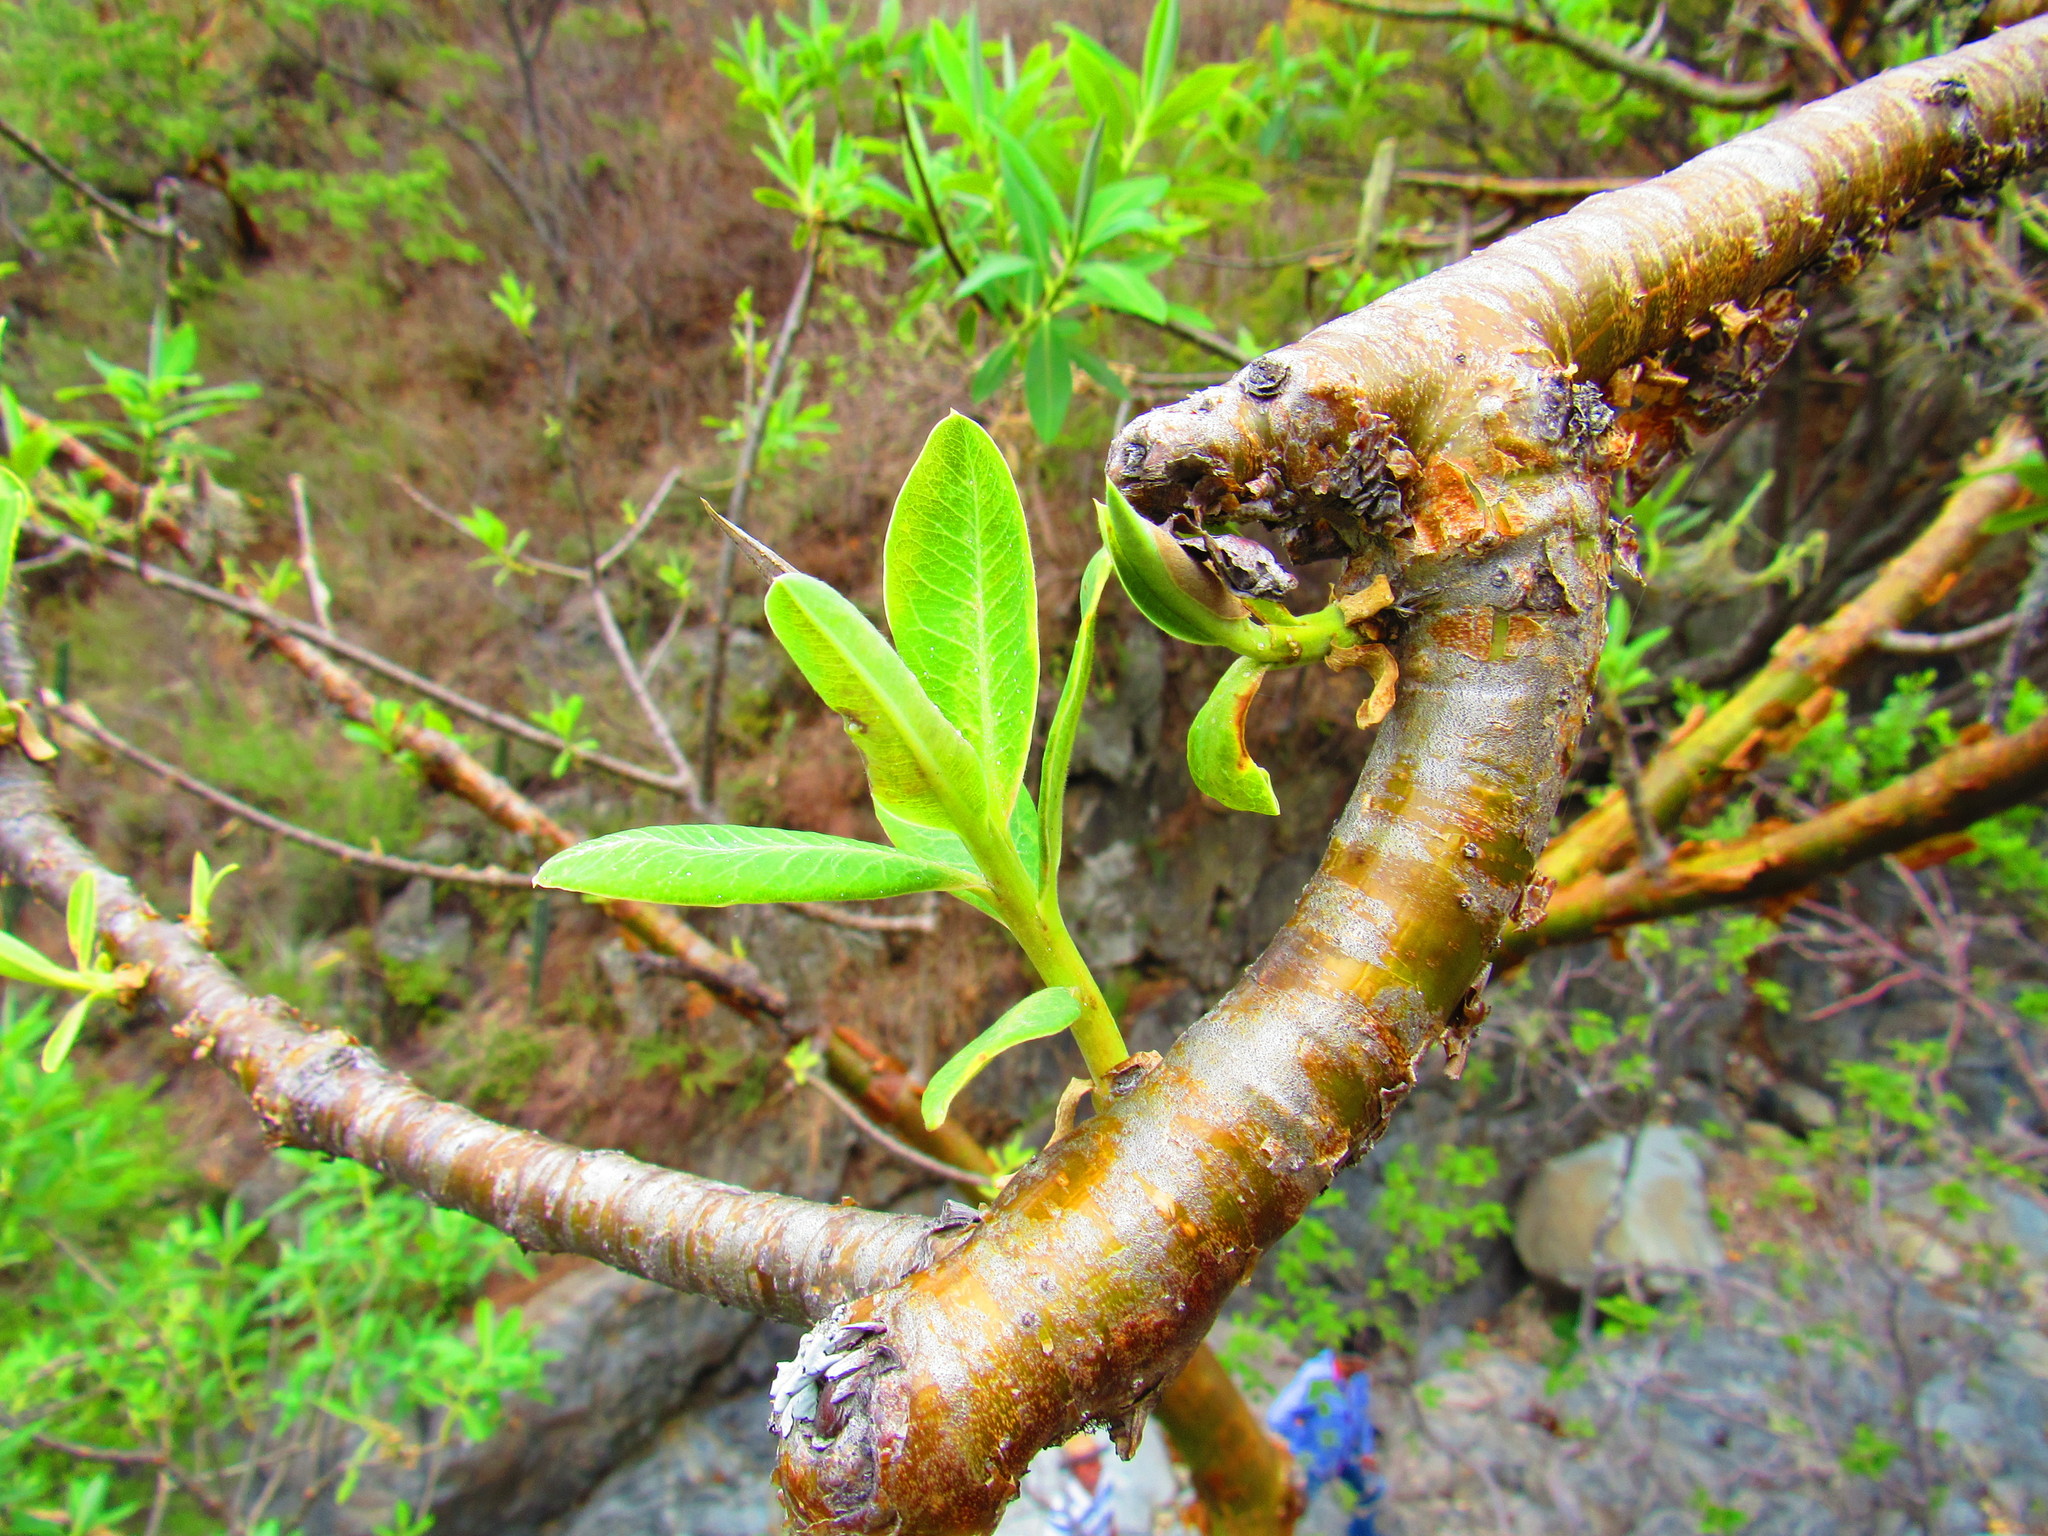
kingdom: Plantae
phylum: Tracheophyta
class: Magnoliopsida
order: Malpighiales
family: Euphorbiaceae
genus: Euphorbia
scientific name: Euphorbia tanquahuete
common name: Leche maria
